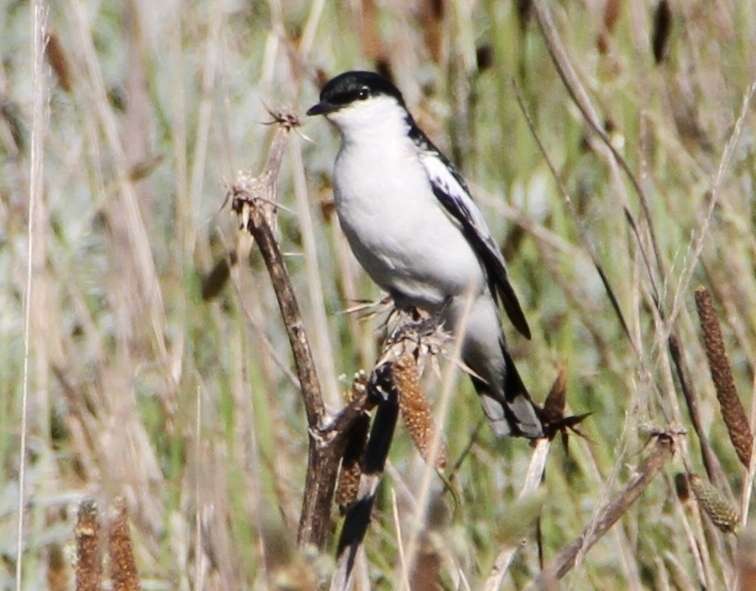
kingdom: Animalia
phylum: Chordata
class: Aves
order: Passeriformes
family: Campephagidae
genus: Lalage
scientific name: Lalage tricolor
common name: White-winged triller
